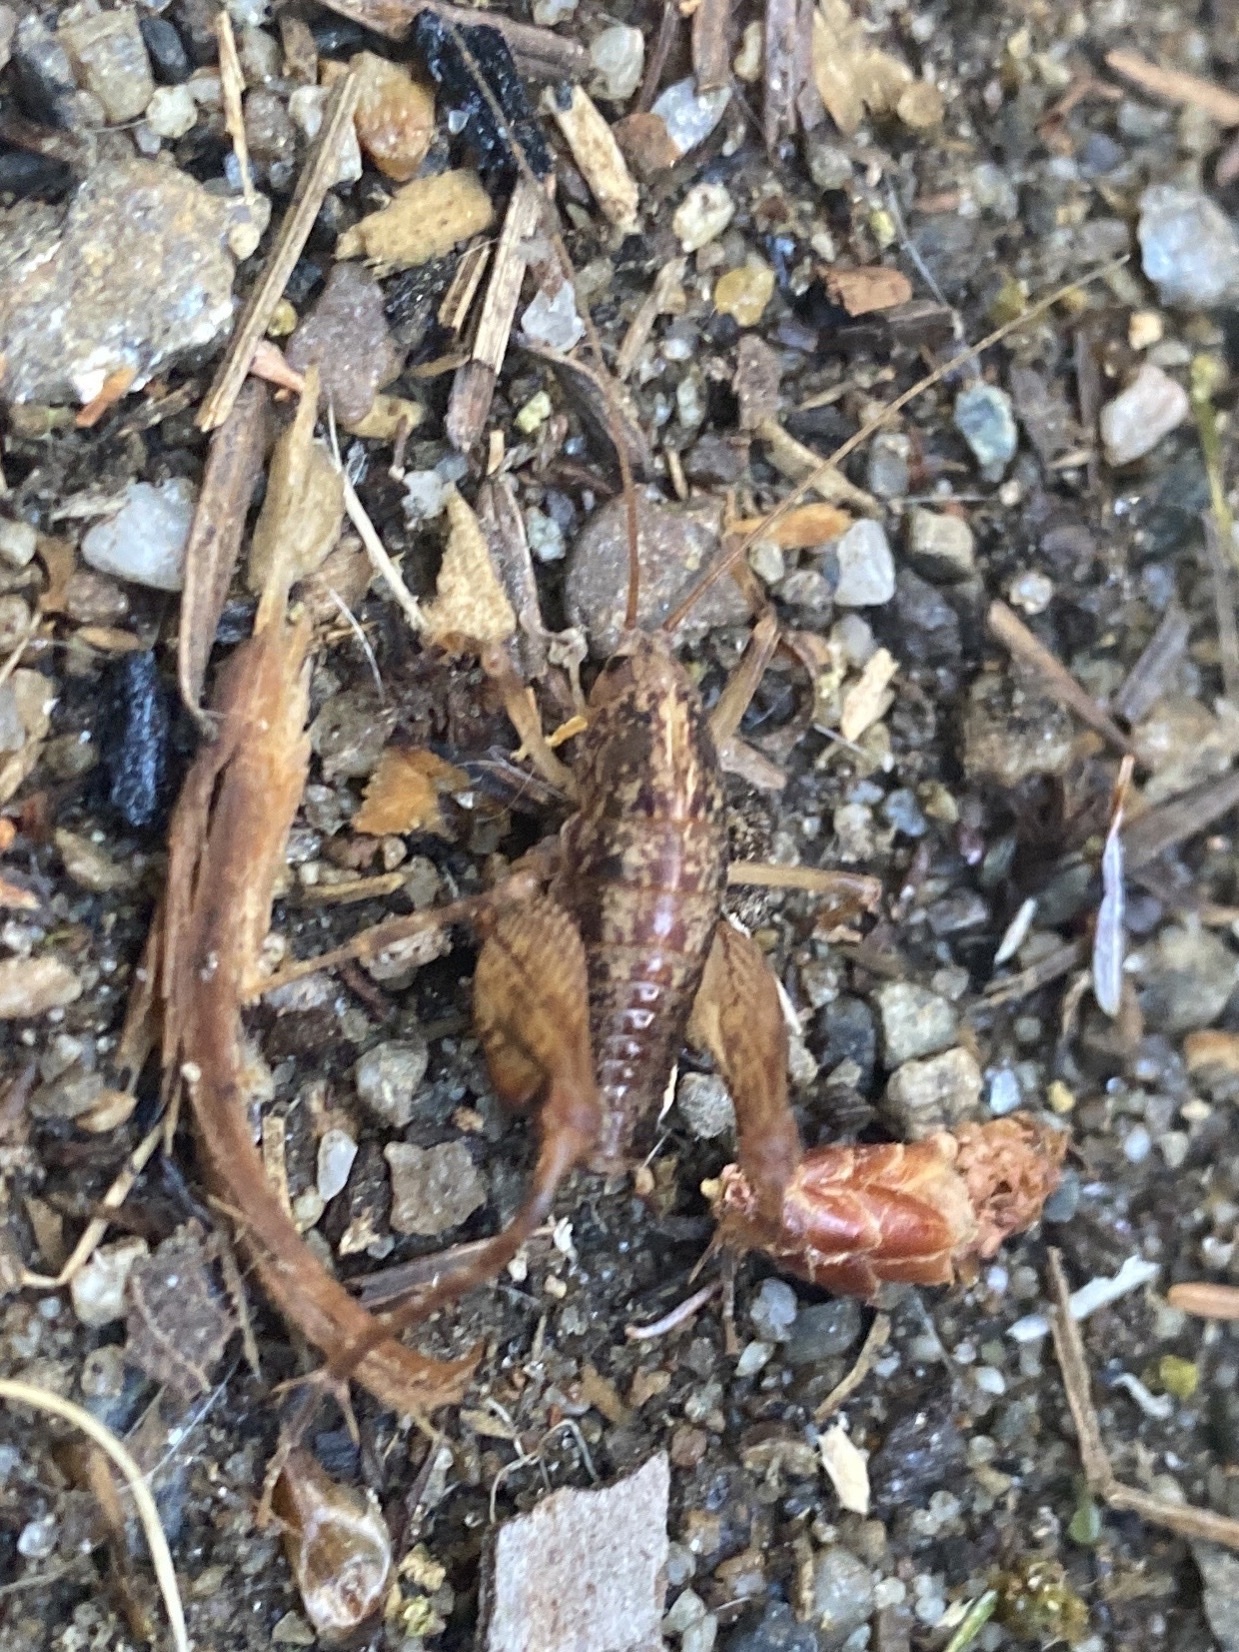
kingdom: Animalia
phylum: Arthropoda
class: Insecta
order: Orthoptera
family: Rhaphidophoridae
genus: Pristoceuthophilus
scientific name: Pristoceuthophilus celatus
